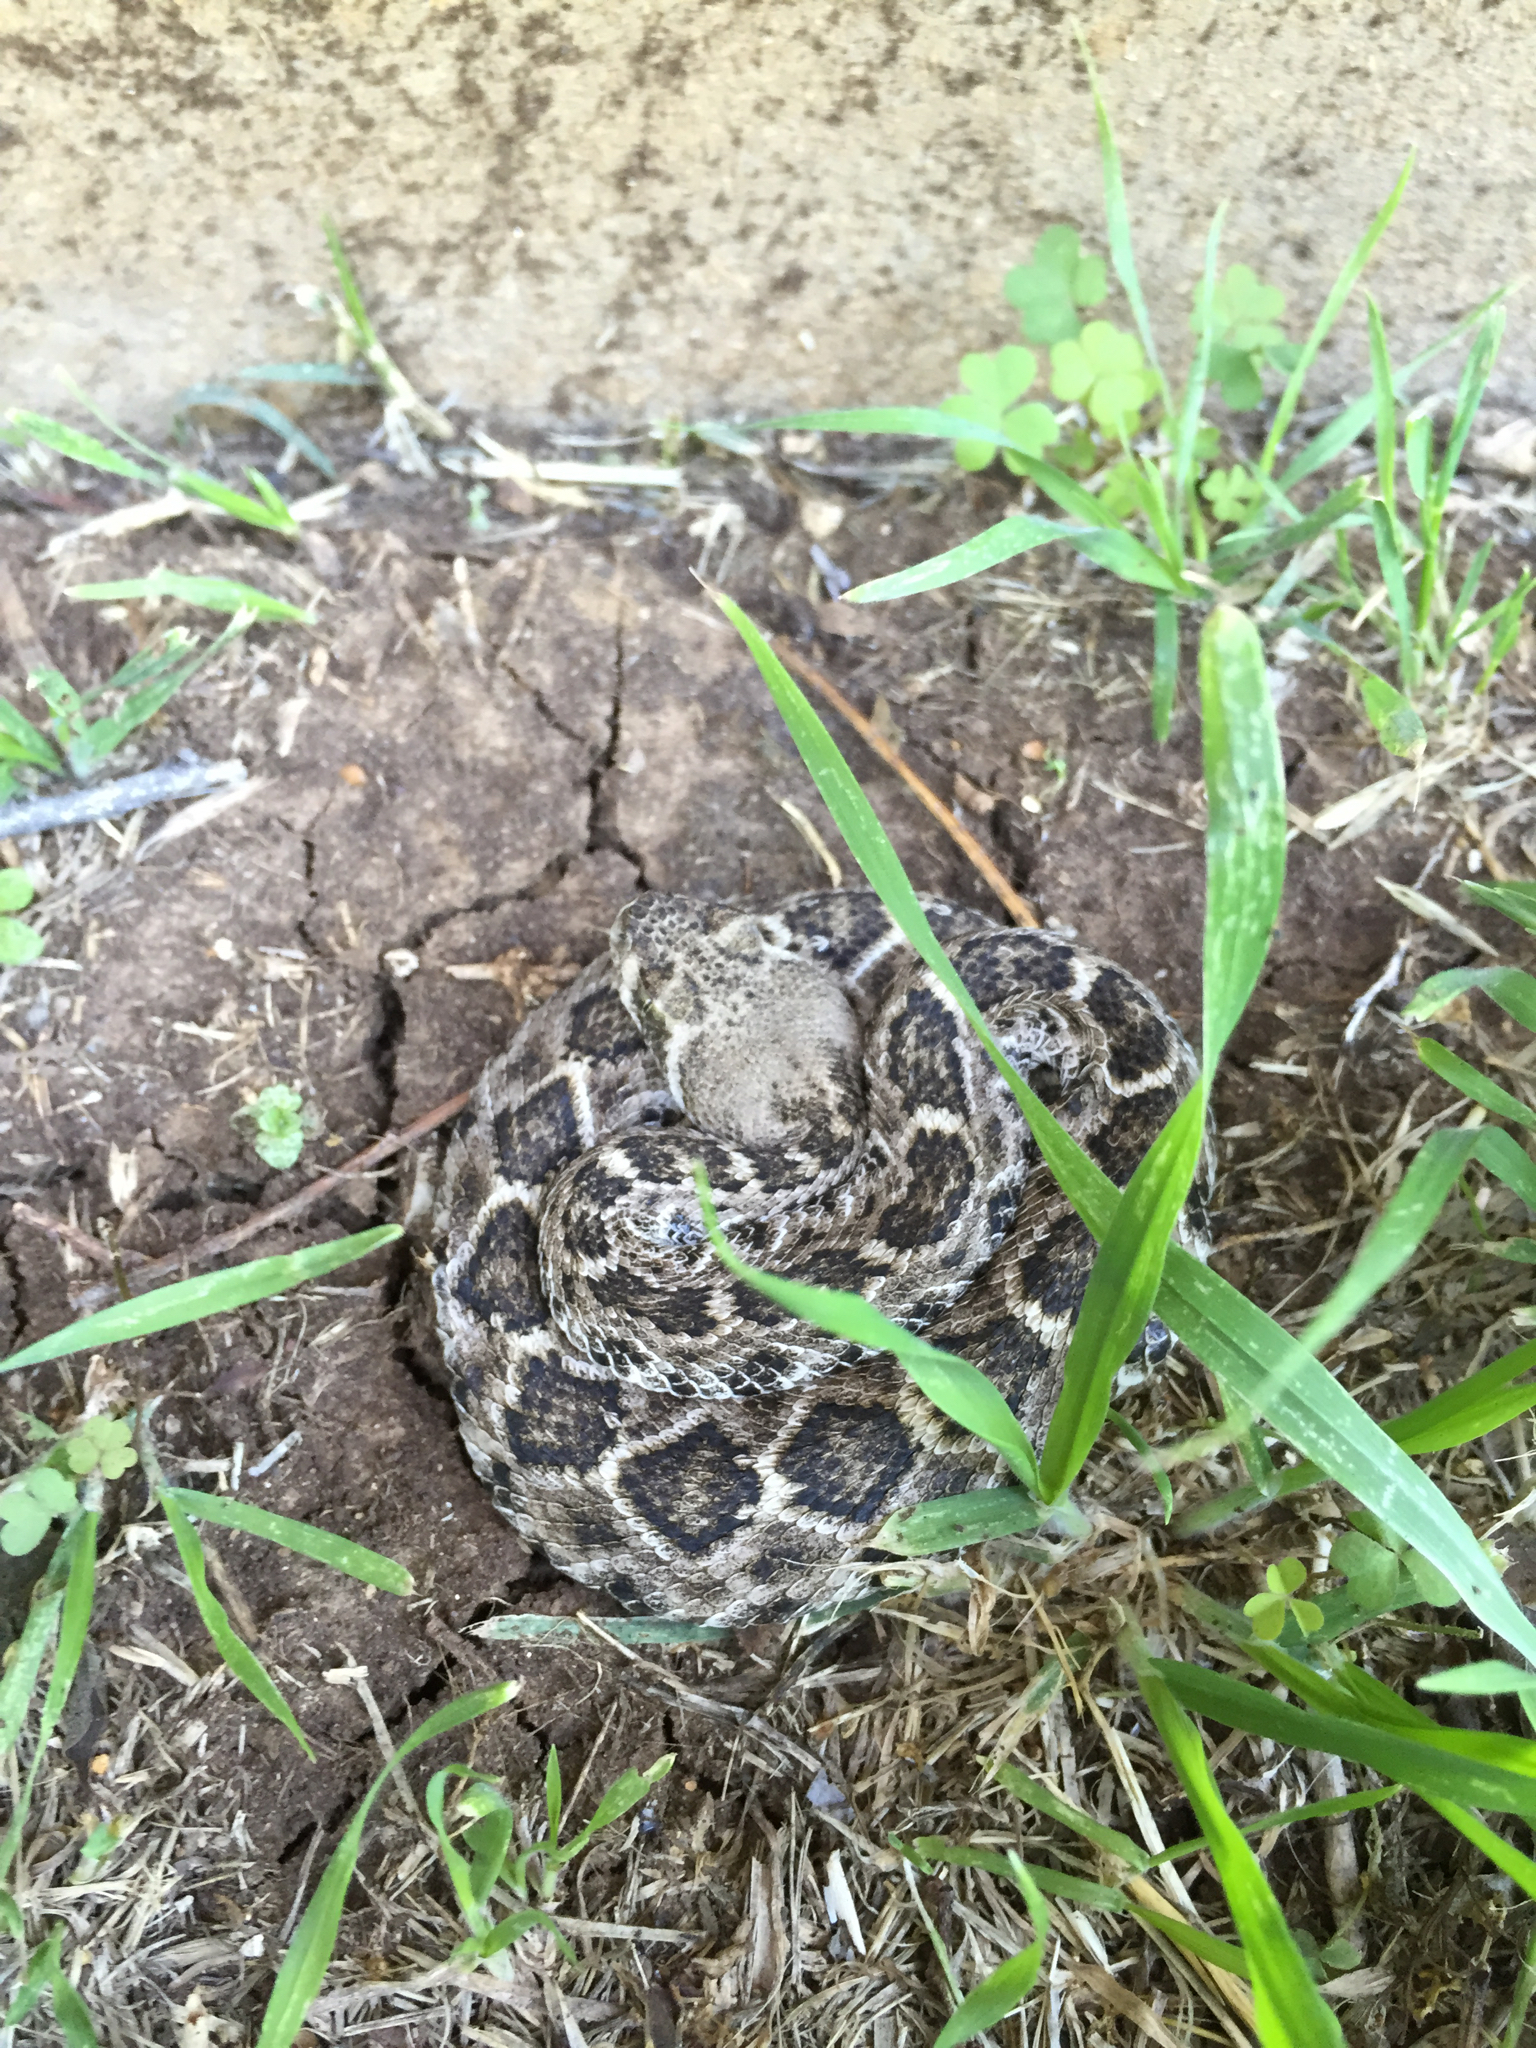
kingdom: Animalia
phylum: Chordata
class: Squamata
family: Viperidae
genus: Crotalus
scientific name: Crotalus atrox
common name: Western diamond-backed rattlesnake
